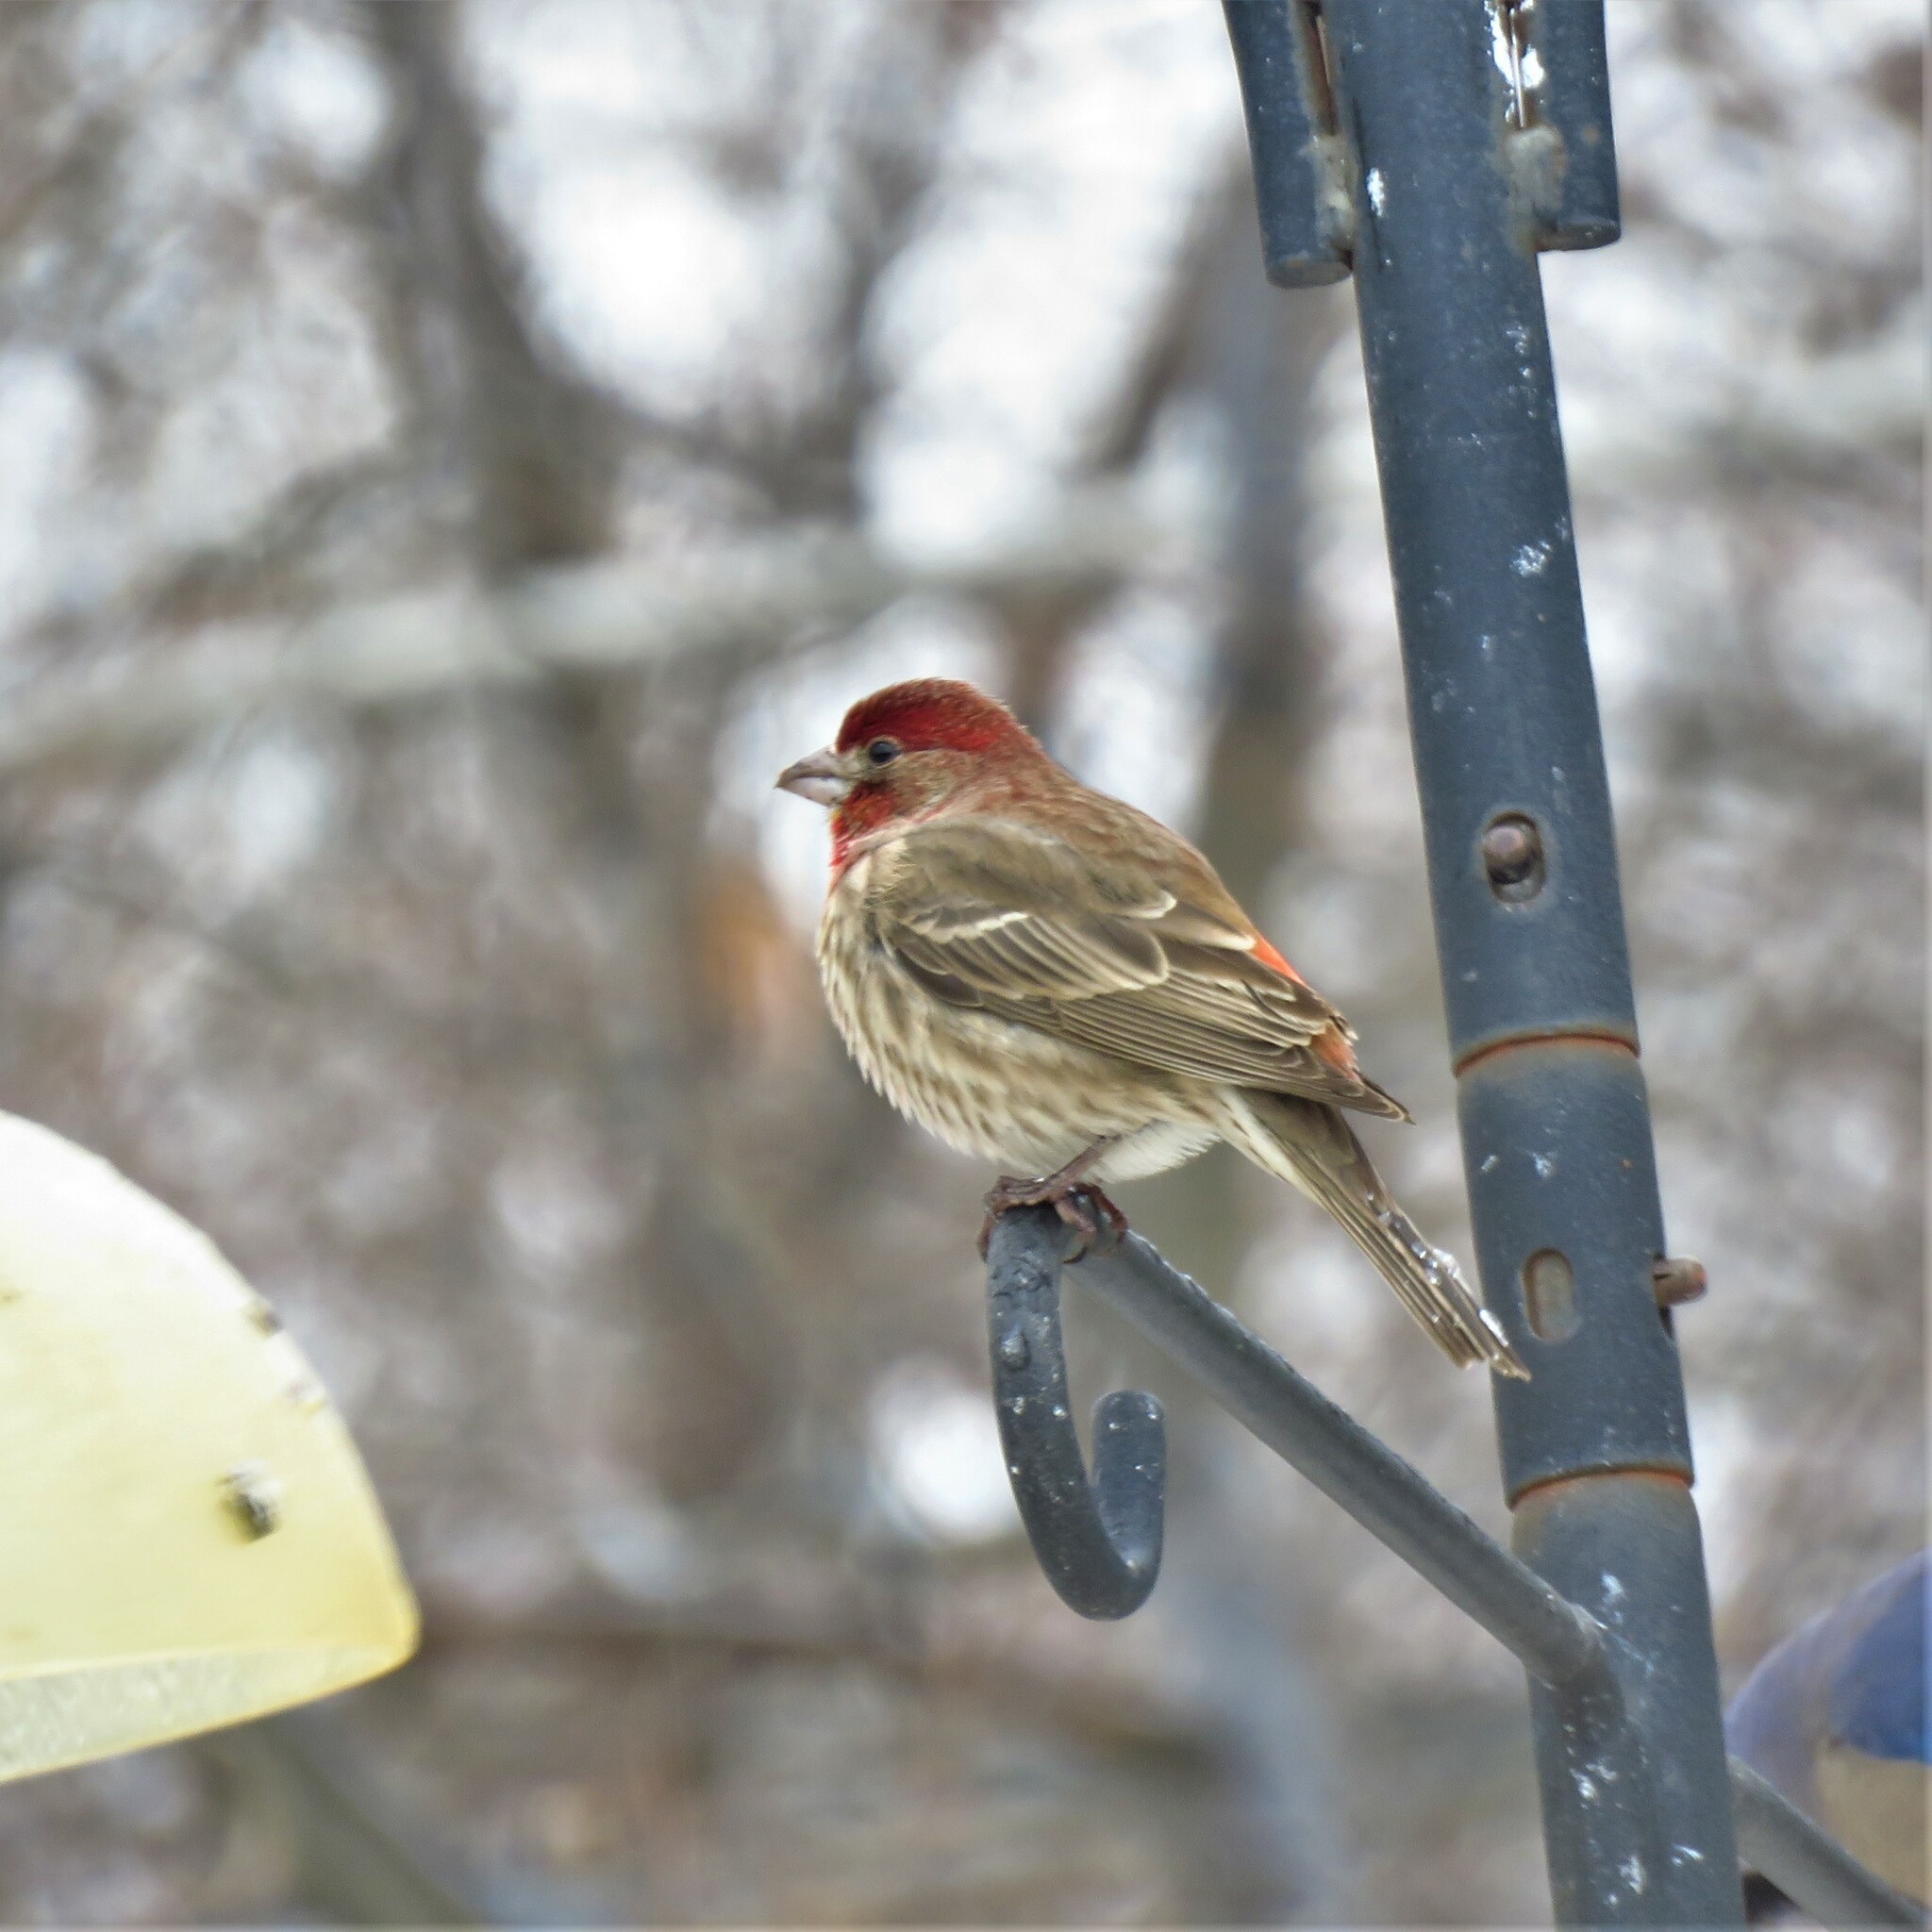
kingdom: Animalia
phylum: Chordata
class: Aves
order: Passeriformes
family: Fringillidae
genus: Haemorhous
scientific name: Haemorhous mexicanus
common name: House finch
